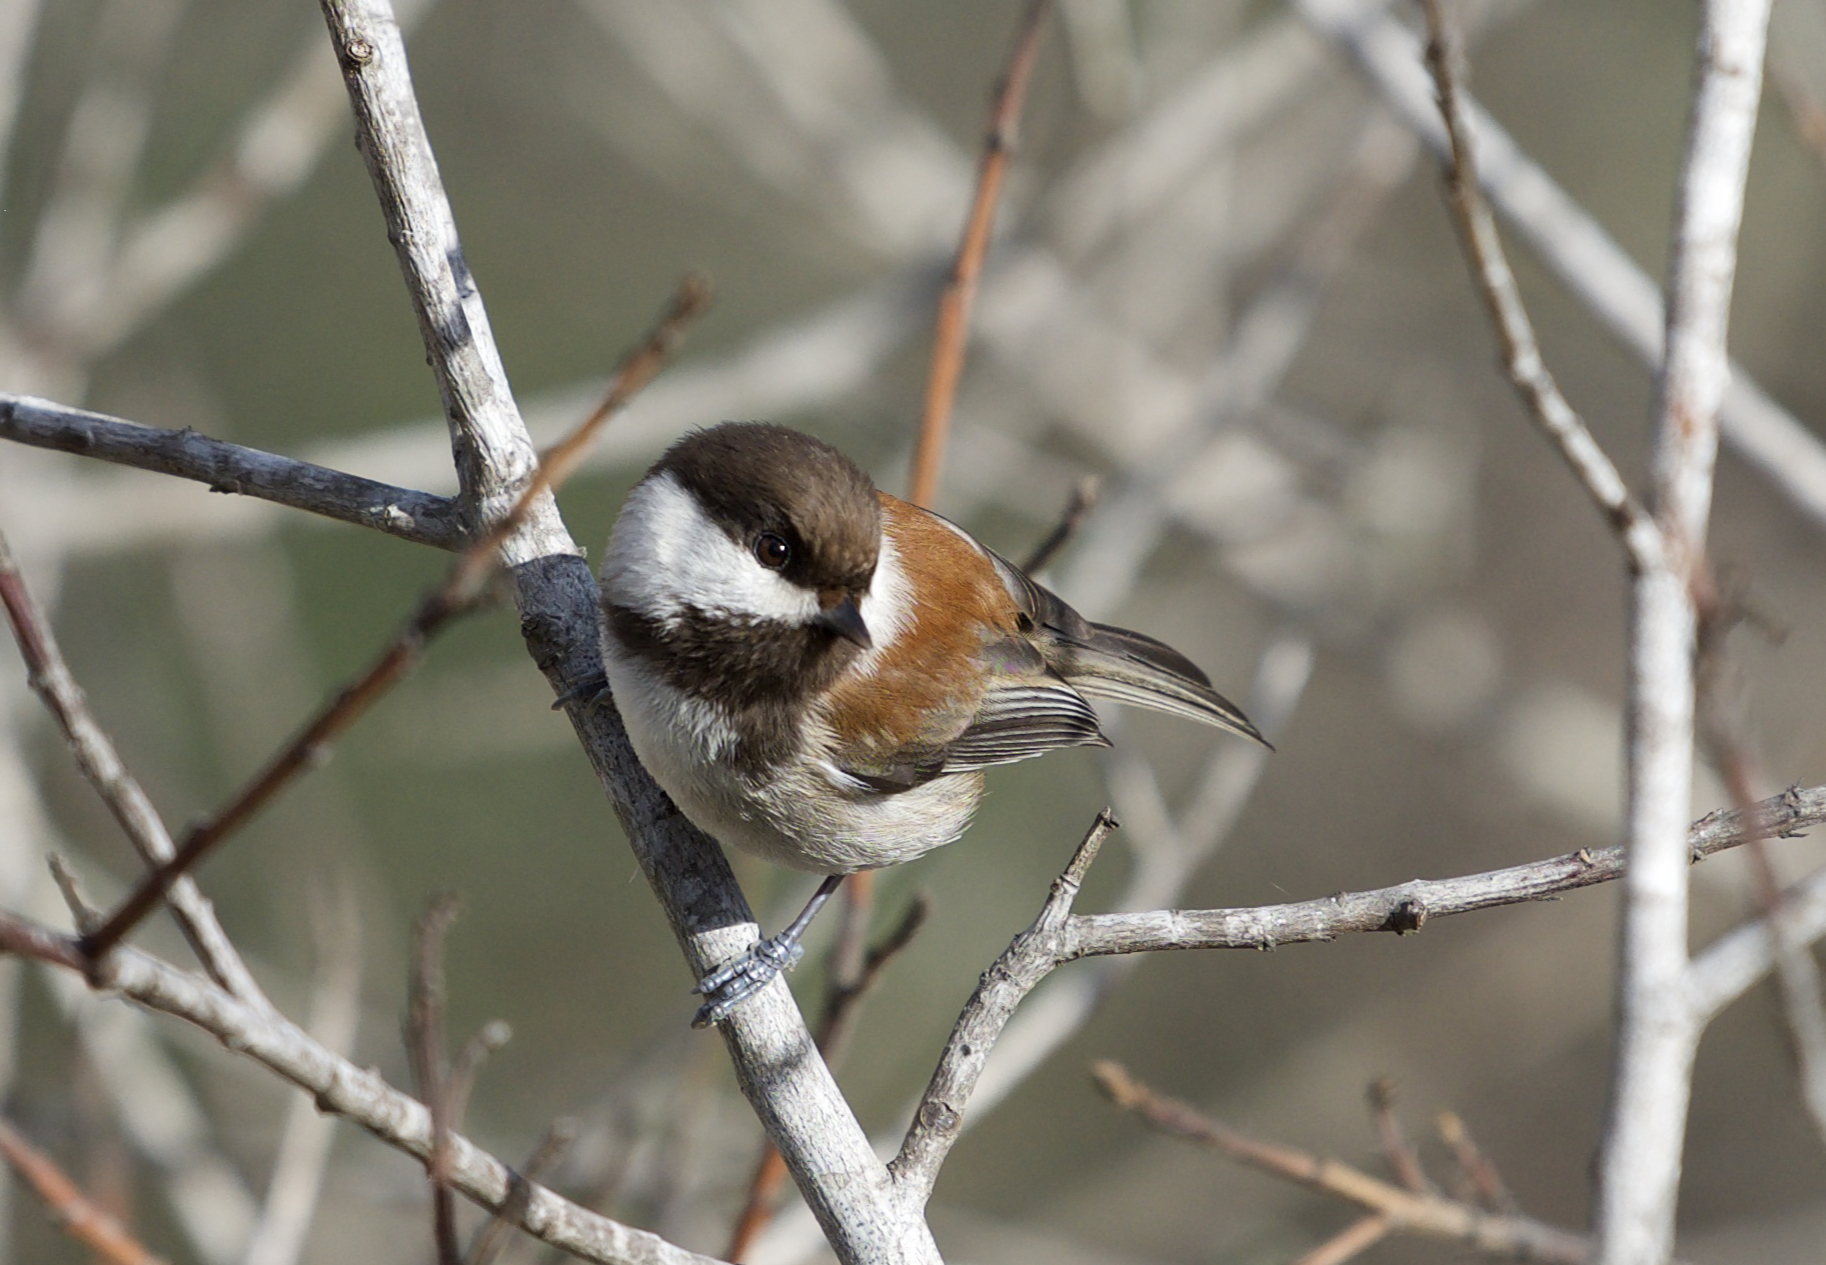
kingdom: Animalia
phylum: Chordata
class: Aves
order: Passeriformes
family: Paridae
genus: Poecile
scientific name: Poecile rufescens
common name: Chestnut-backed chickadee
